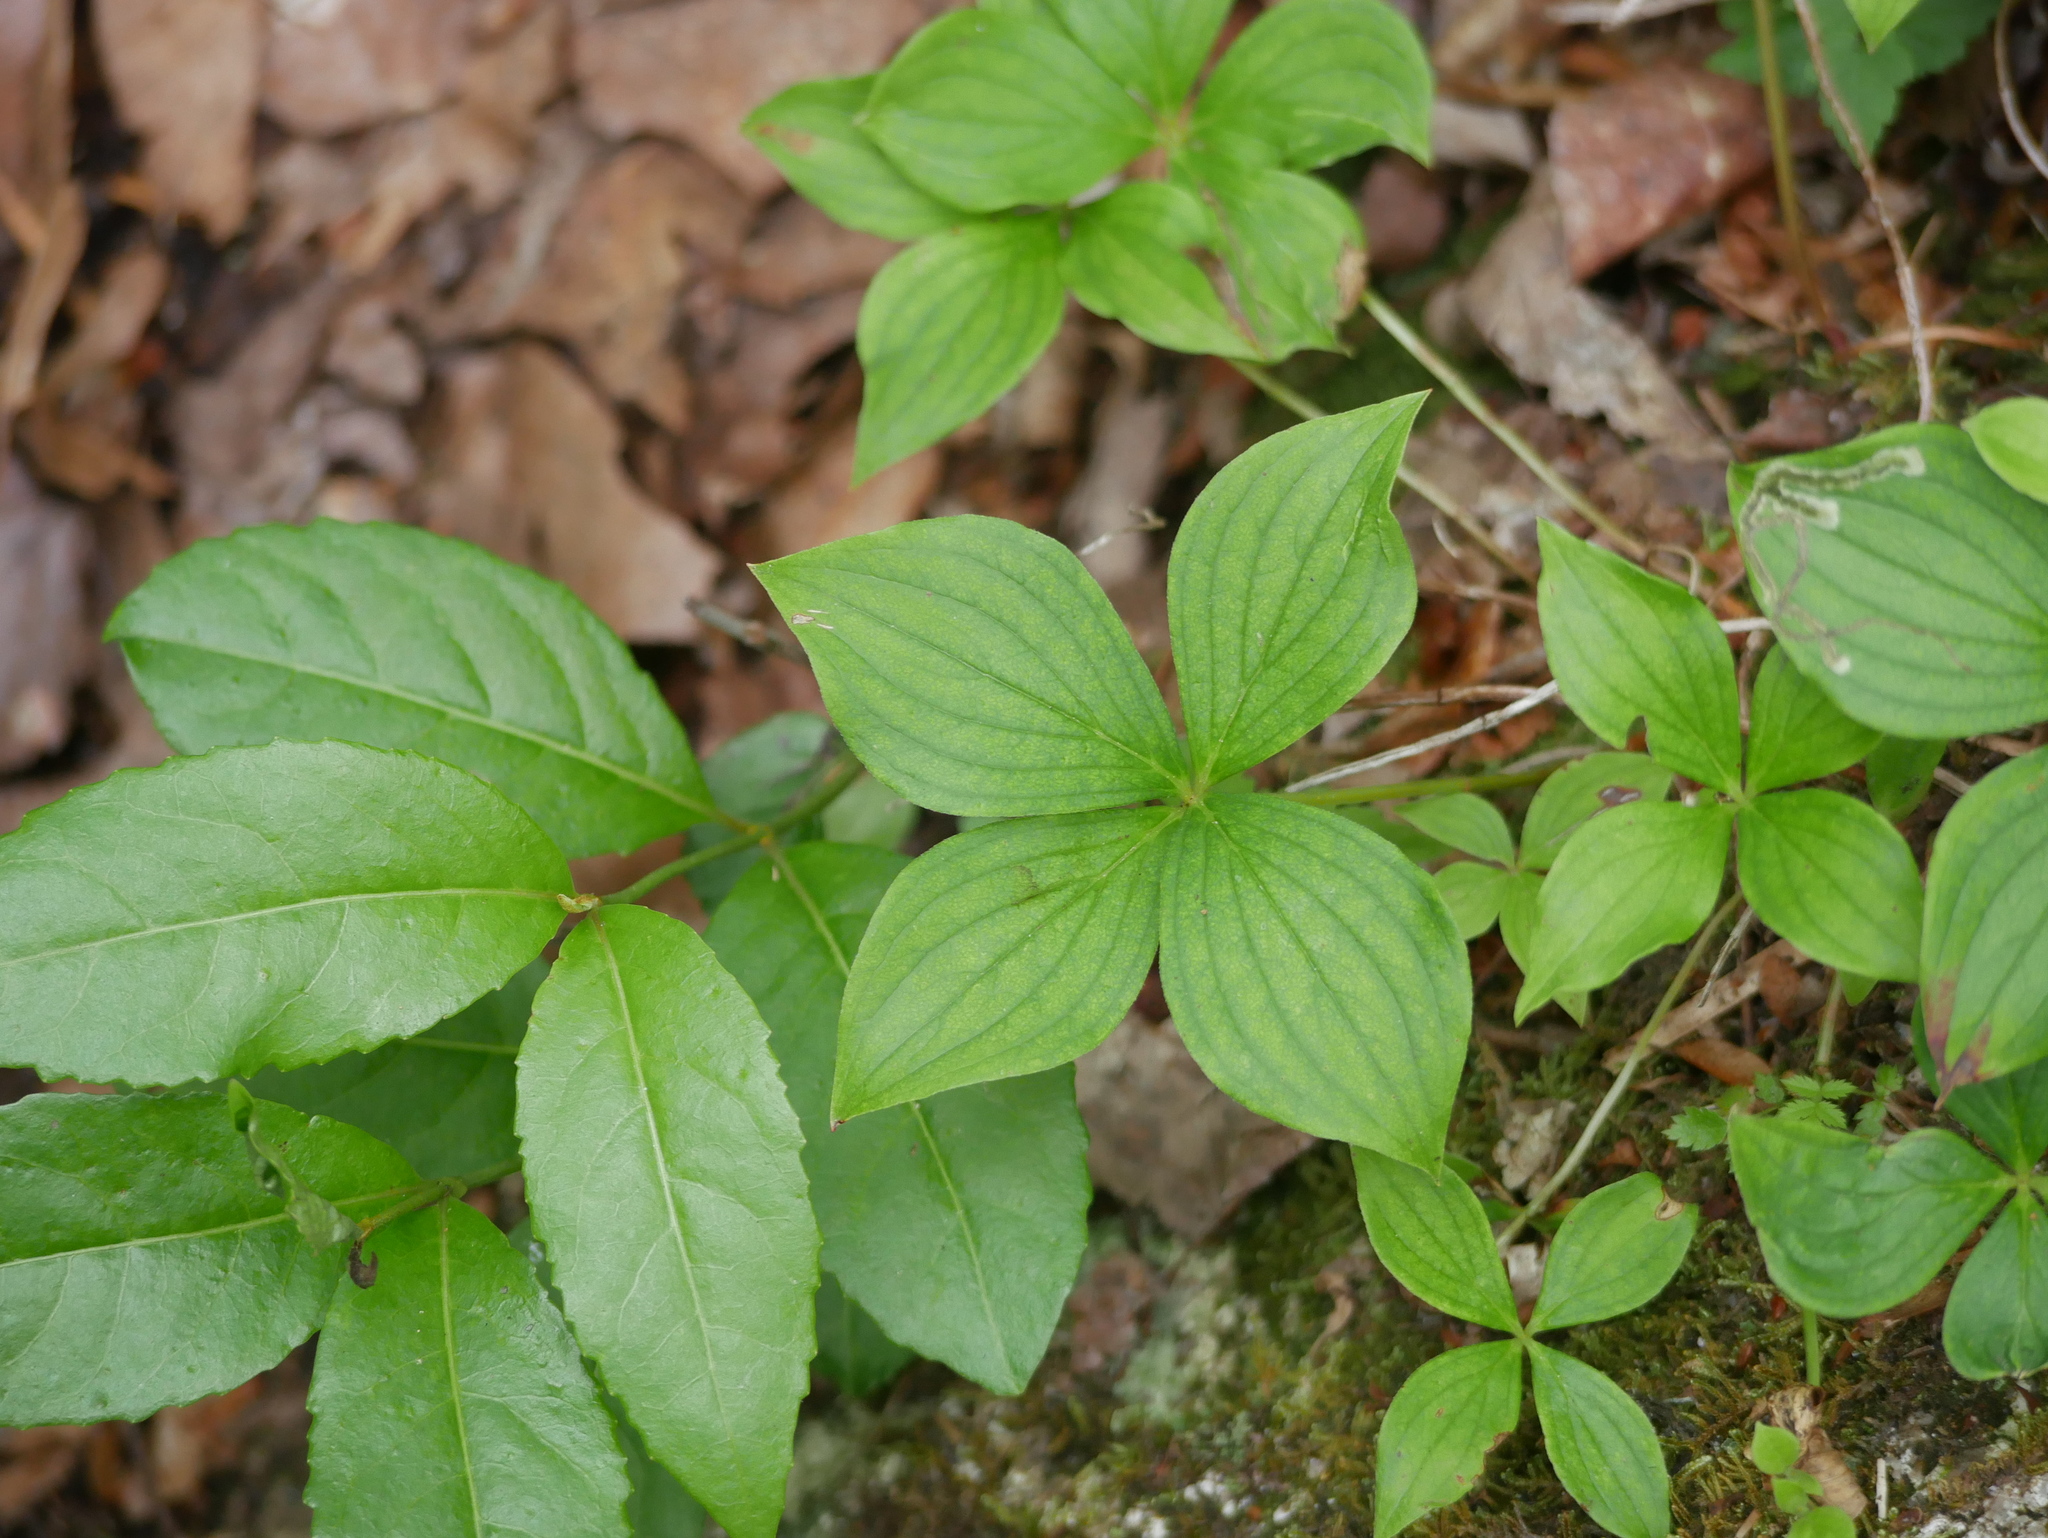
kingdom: Plantae
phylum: Tracheophyta
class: Magnoliopsida
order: Cornales
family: Cornaceae
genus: Cornus
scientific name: Cornus canadensis
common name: Creeping dogwood
